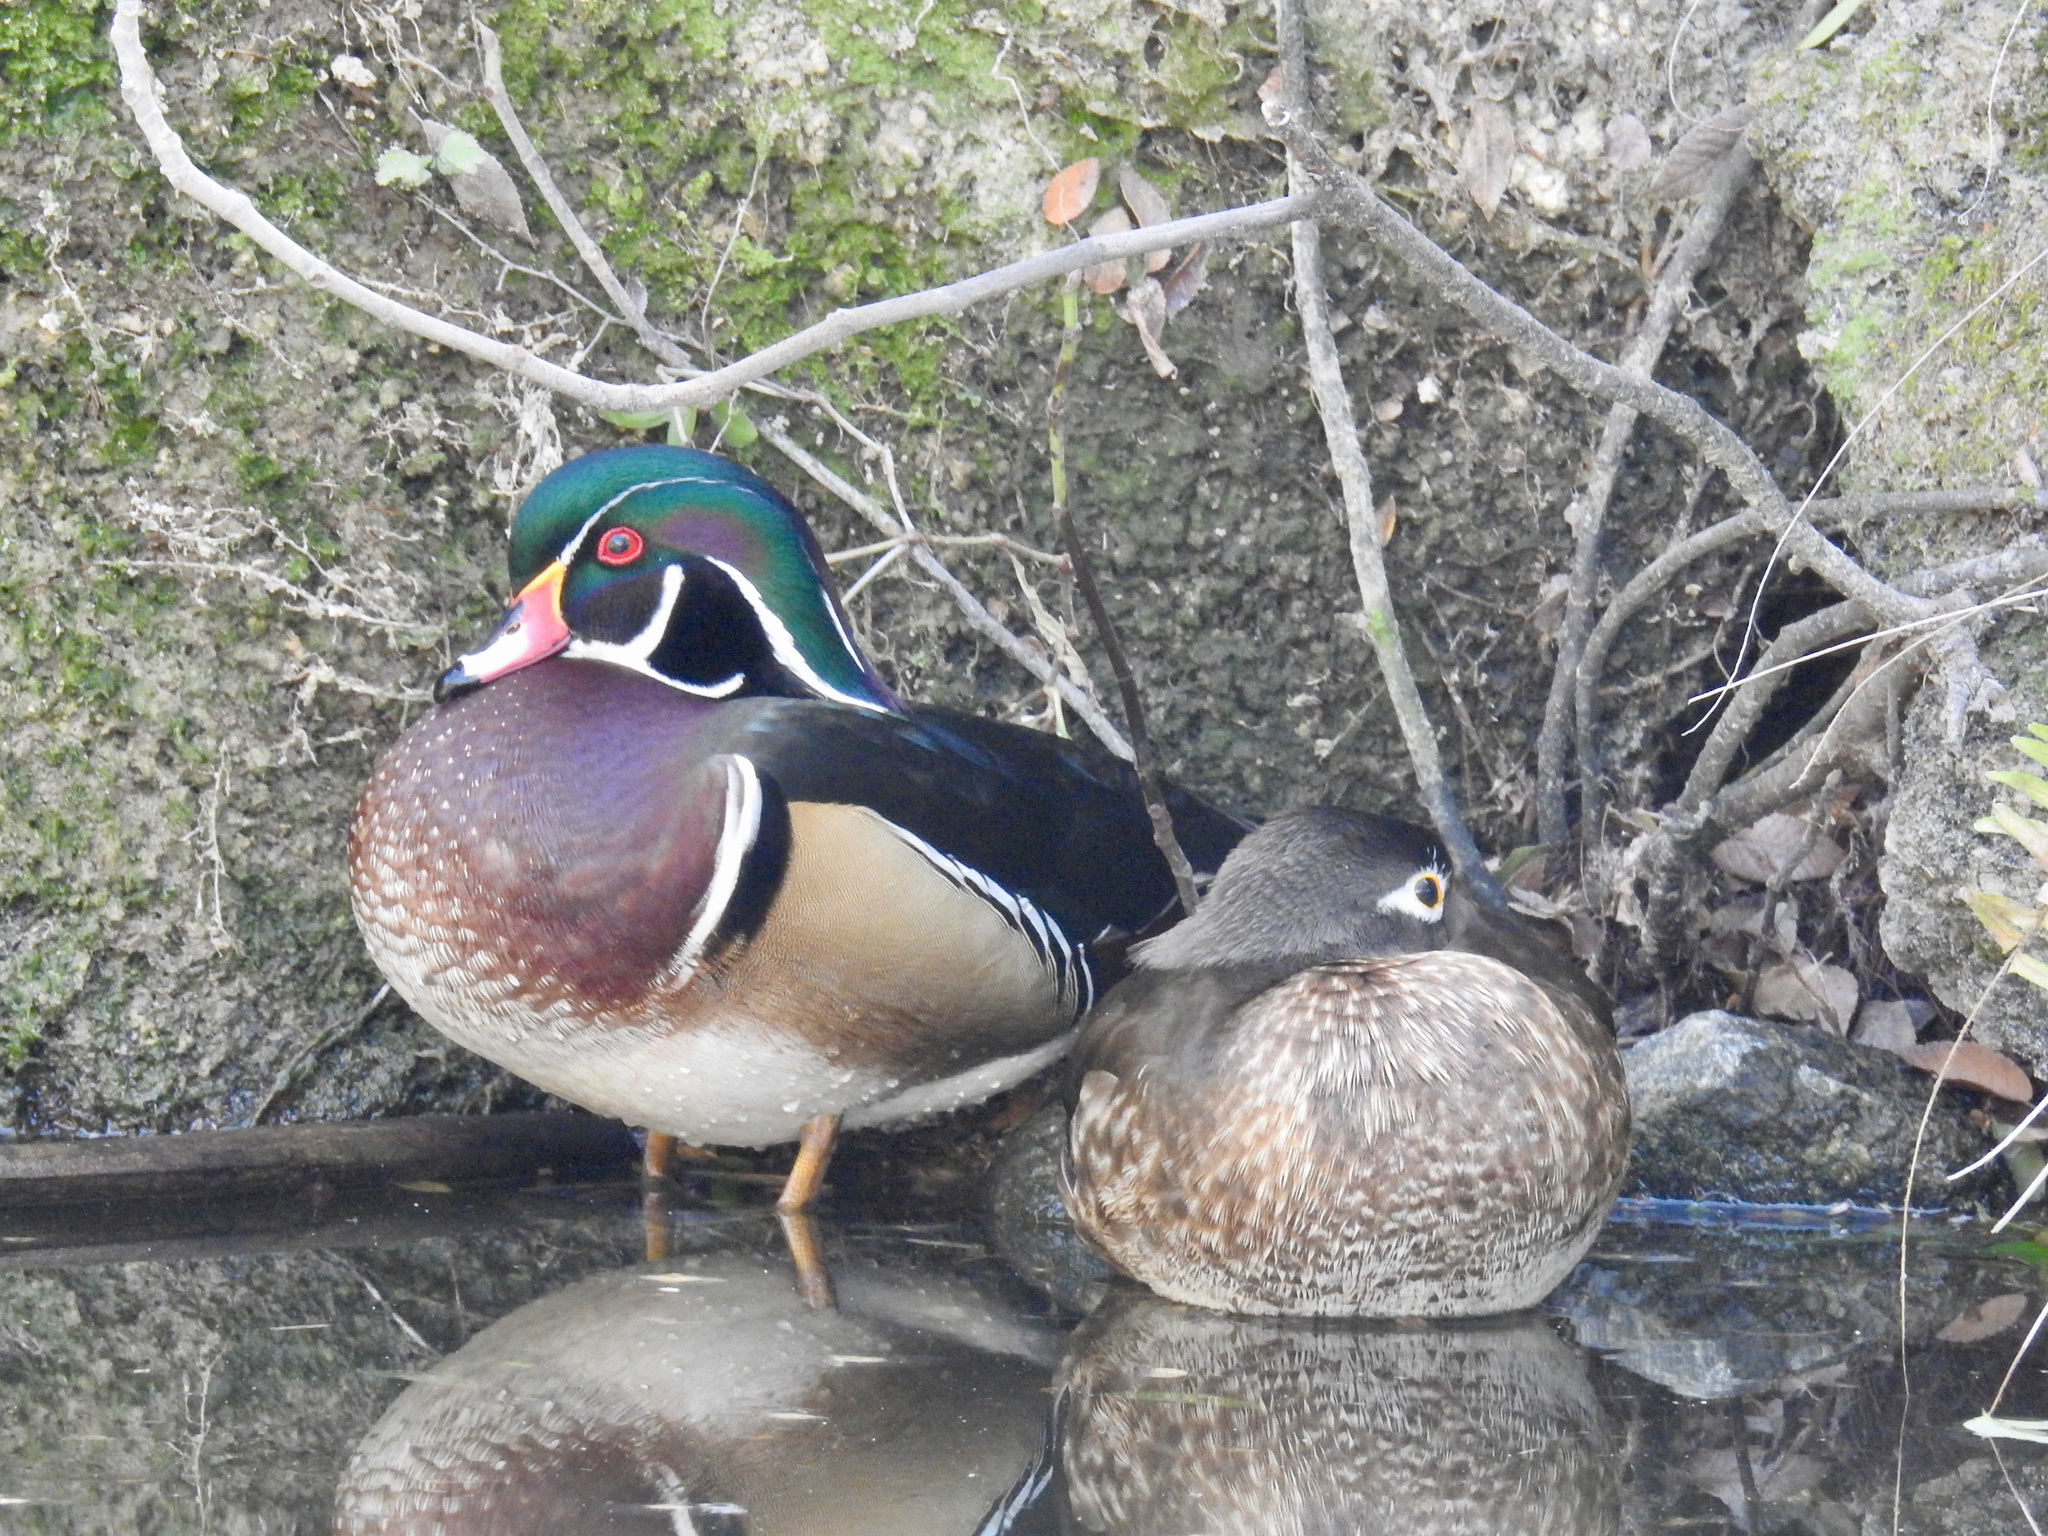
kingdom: Animalia
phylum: Chordata
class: Aves
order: Anseriformes
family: Anatidae
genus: Aix
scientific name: Aix sponsa
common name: Wood duck
